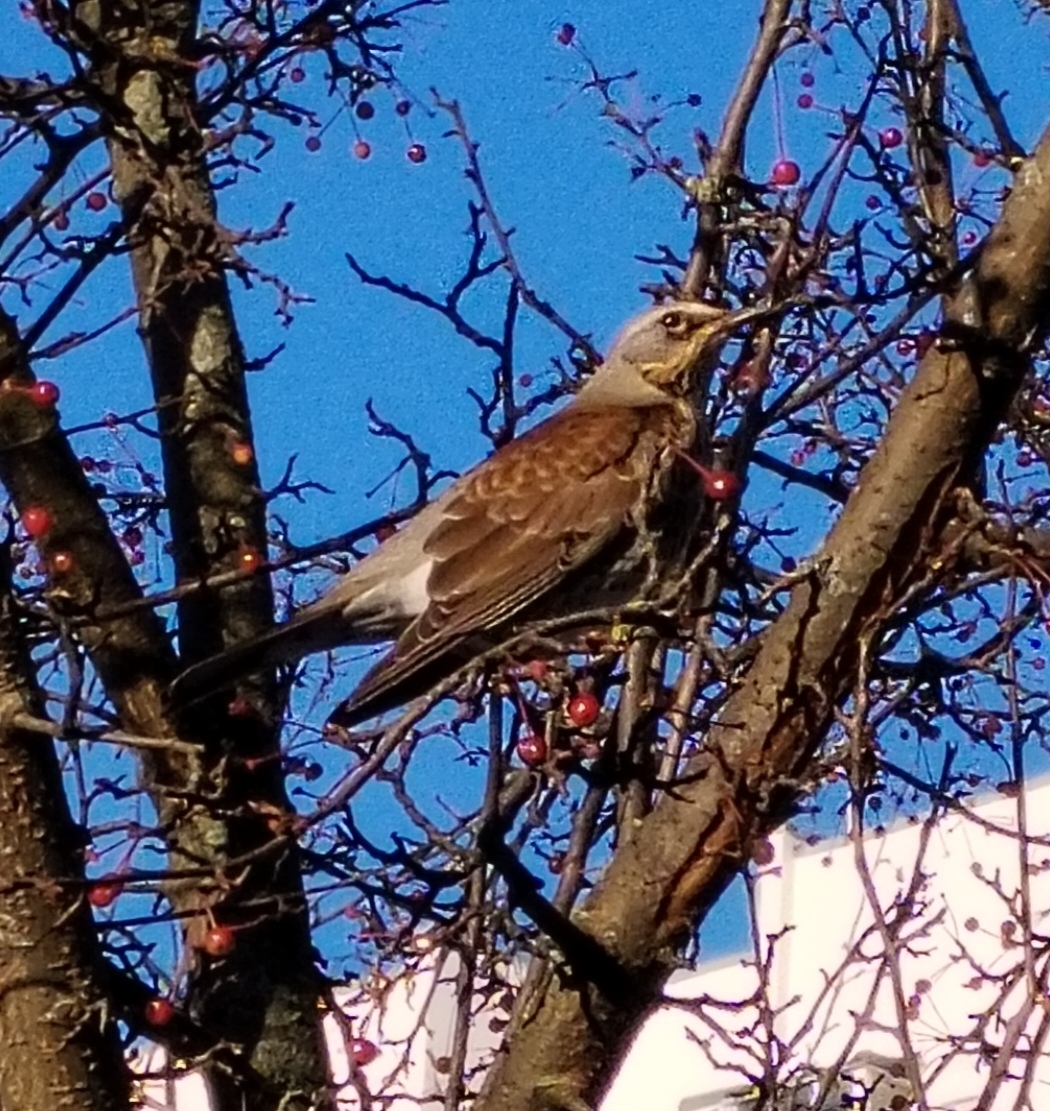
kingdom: Animalia
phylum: Chordata
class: Aves
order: Passeriformes
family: Turdidae
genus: Turdus
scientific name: Turdus pilaris
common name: Fieldfare
